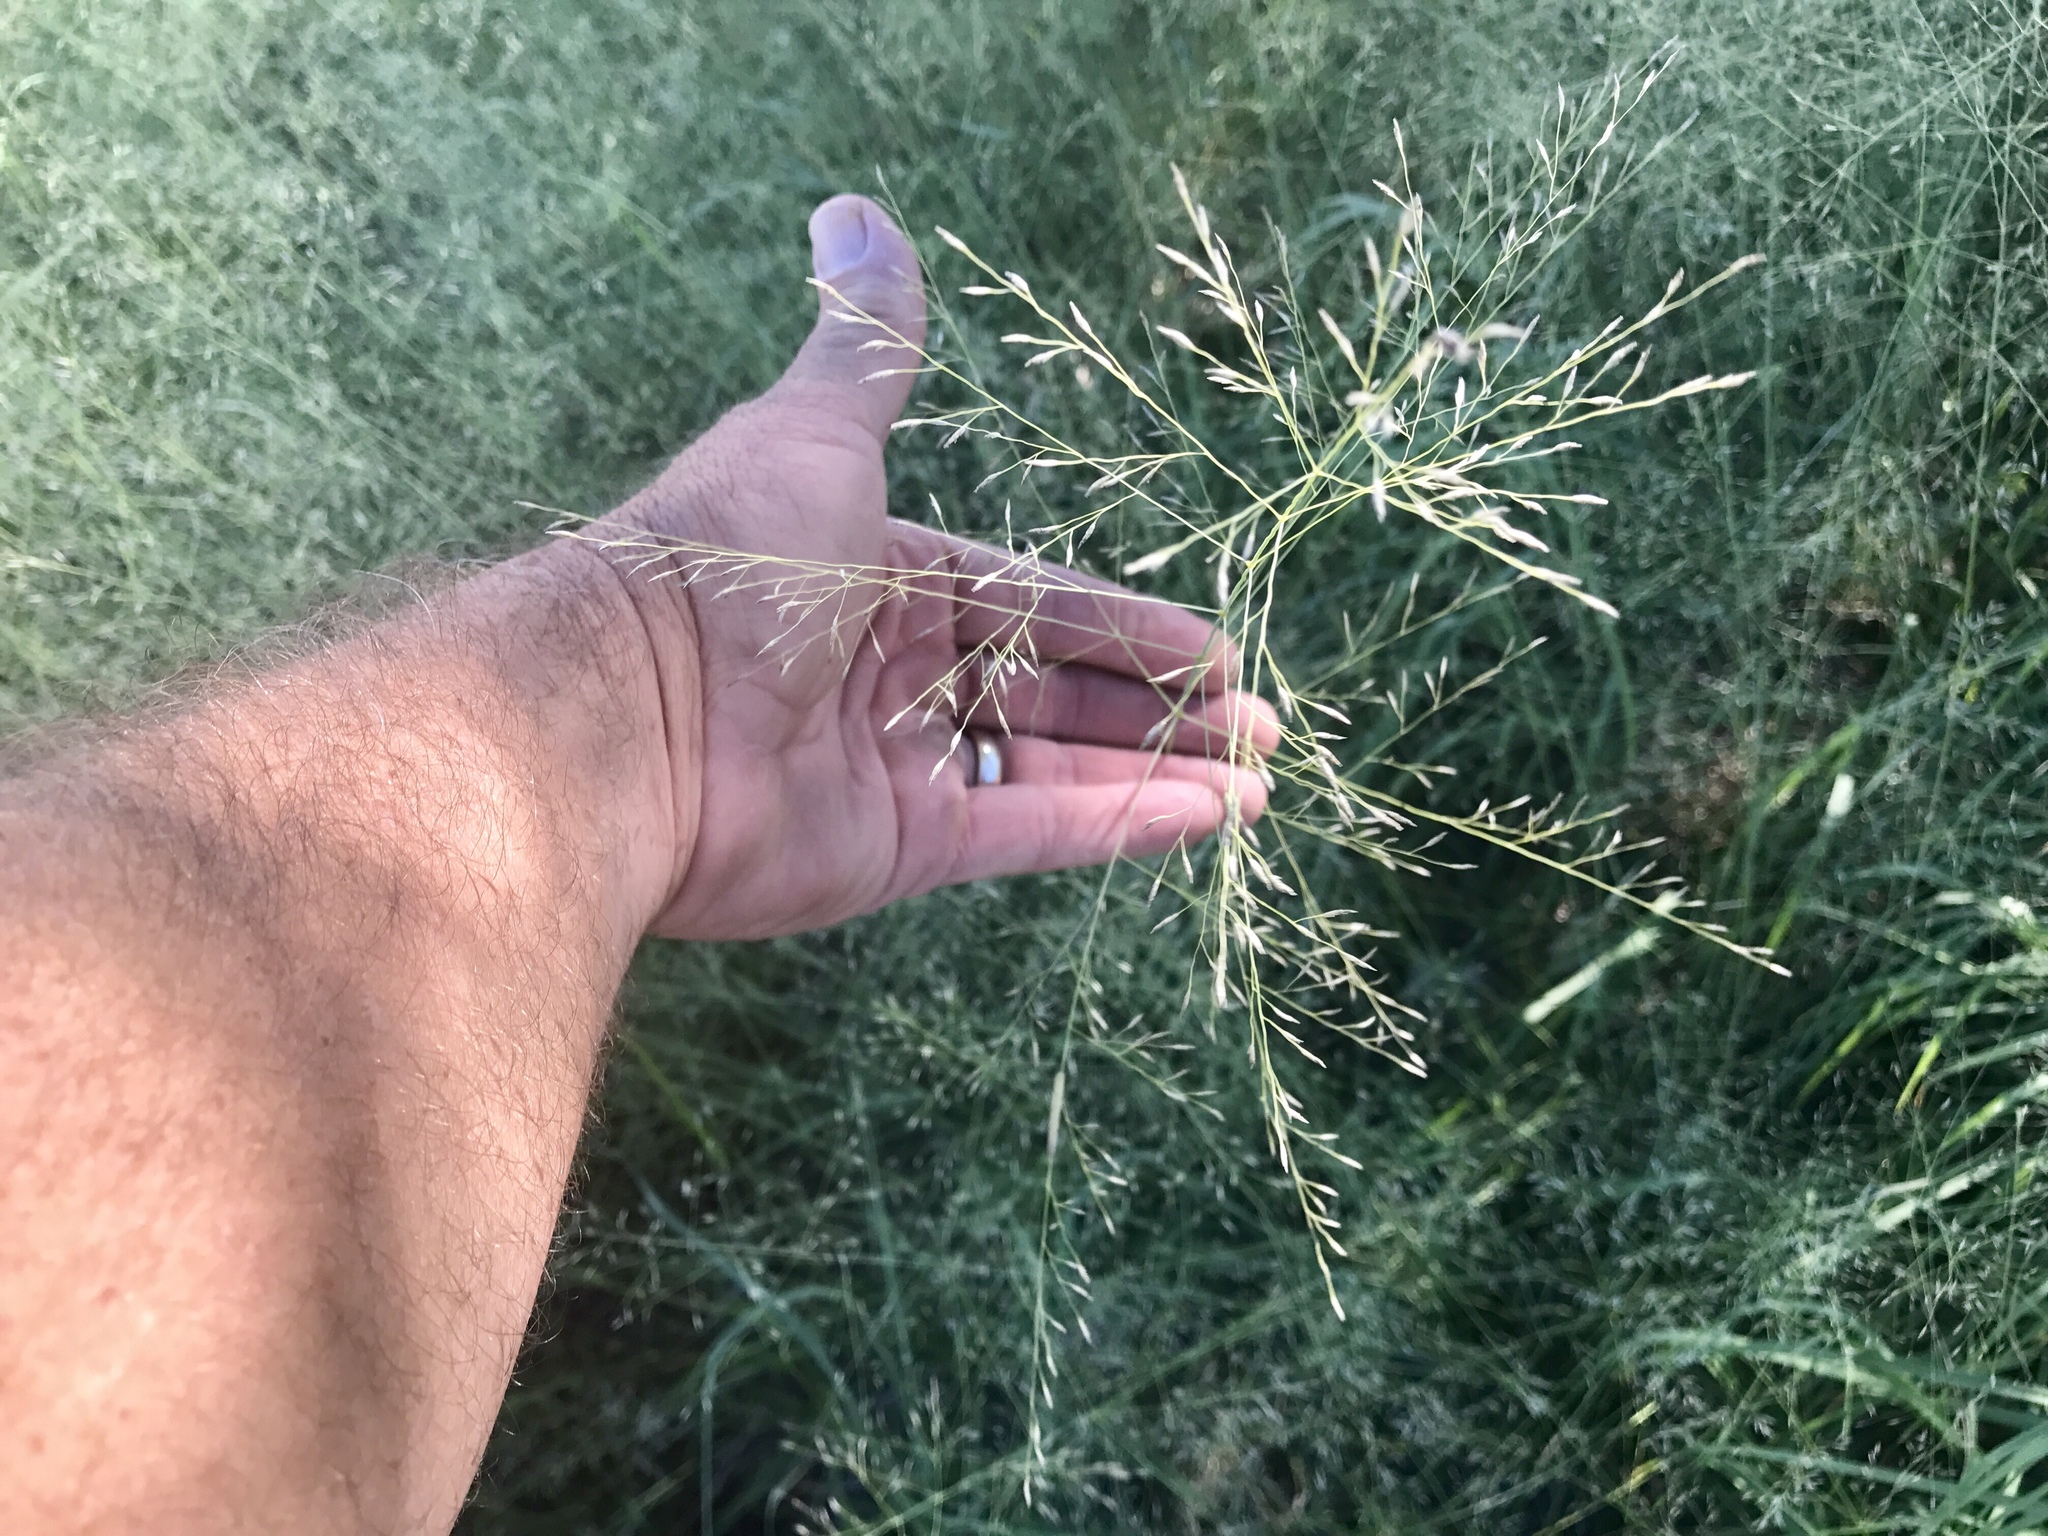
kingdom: Plantae
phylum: Tracheophyta
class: Liliopsida
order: Poales
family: Poaceae
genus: Eragrostis
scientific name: Eragrostis intermedia
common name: Plains love grass
